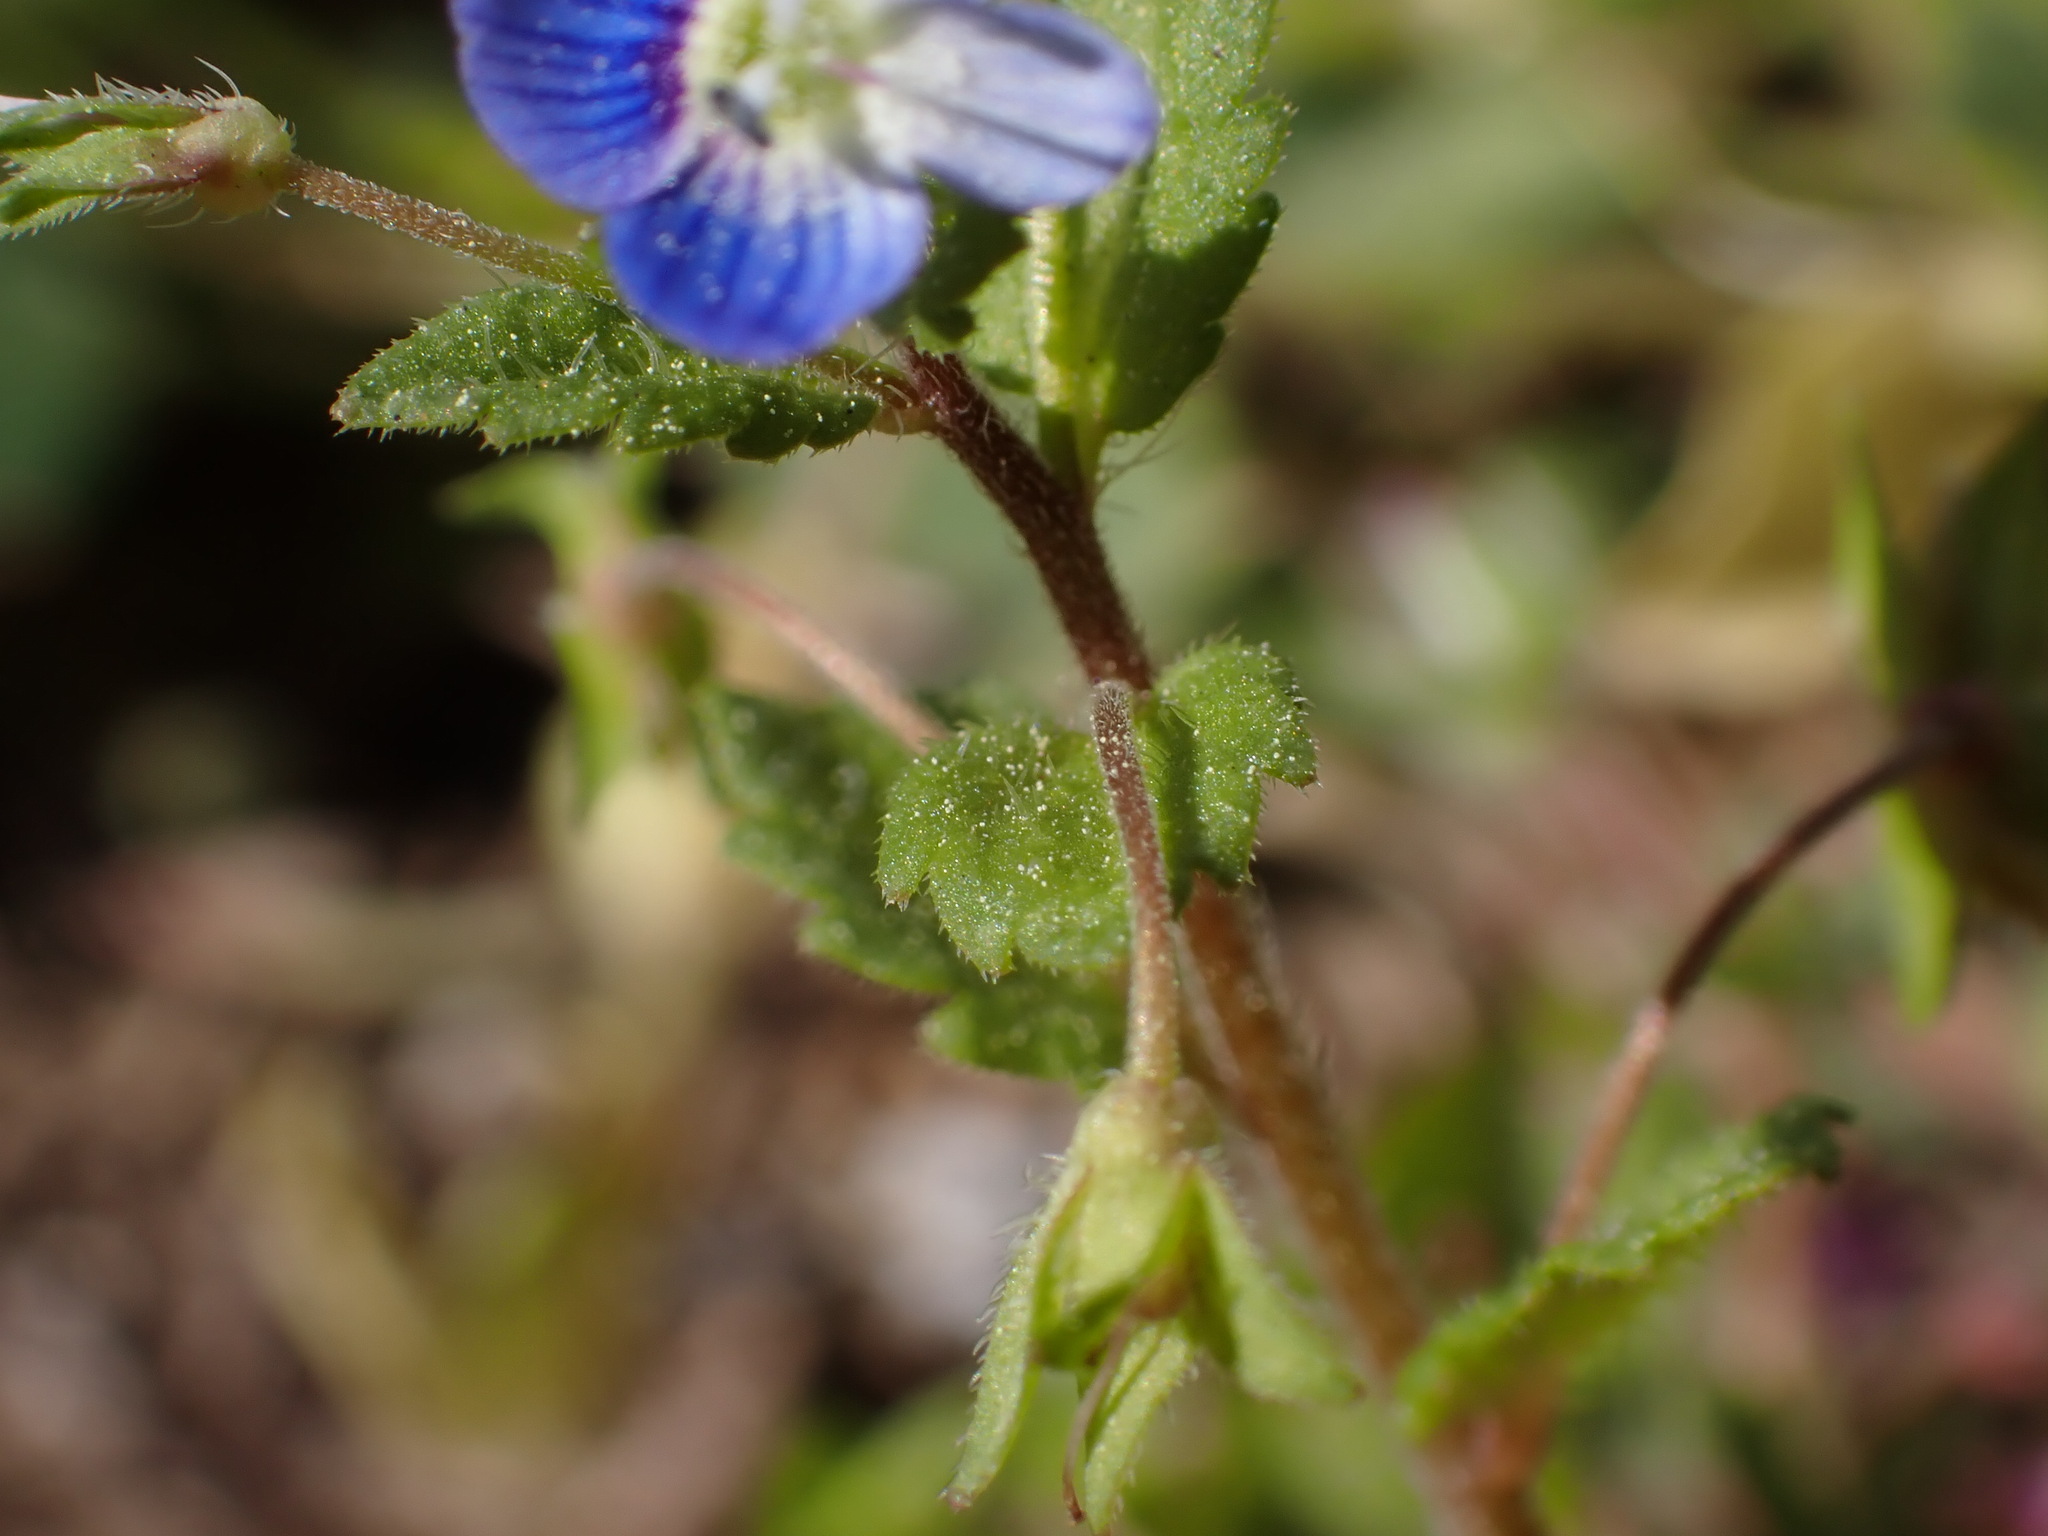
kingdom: Plantae
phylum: Tracheophyta
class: Magnoliopsida
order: Lamiales
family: Plantaginaceae
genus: Veronica
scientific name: Veronica persica
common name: Common field-speedwell
